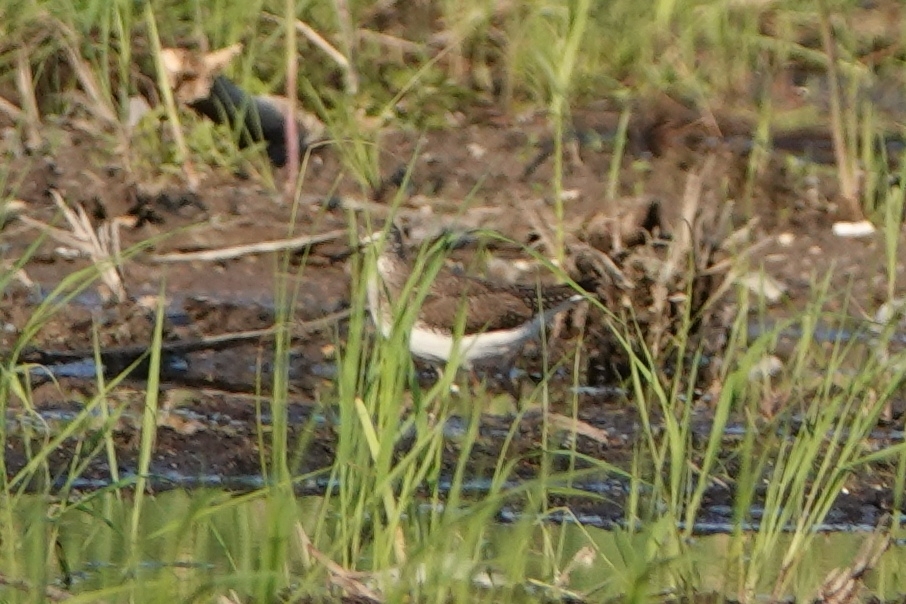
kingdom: Animalia
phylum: Chordata
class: Aves
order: Charadriiformes
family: Scolopacidae
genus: Tringa
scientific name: Tringa ochropus
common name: Green sandpiper
